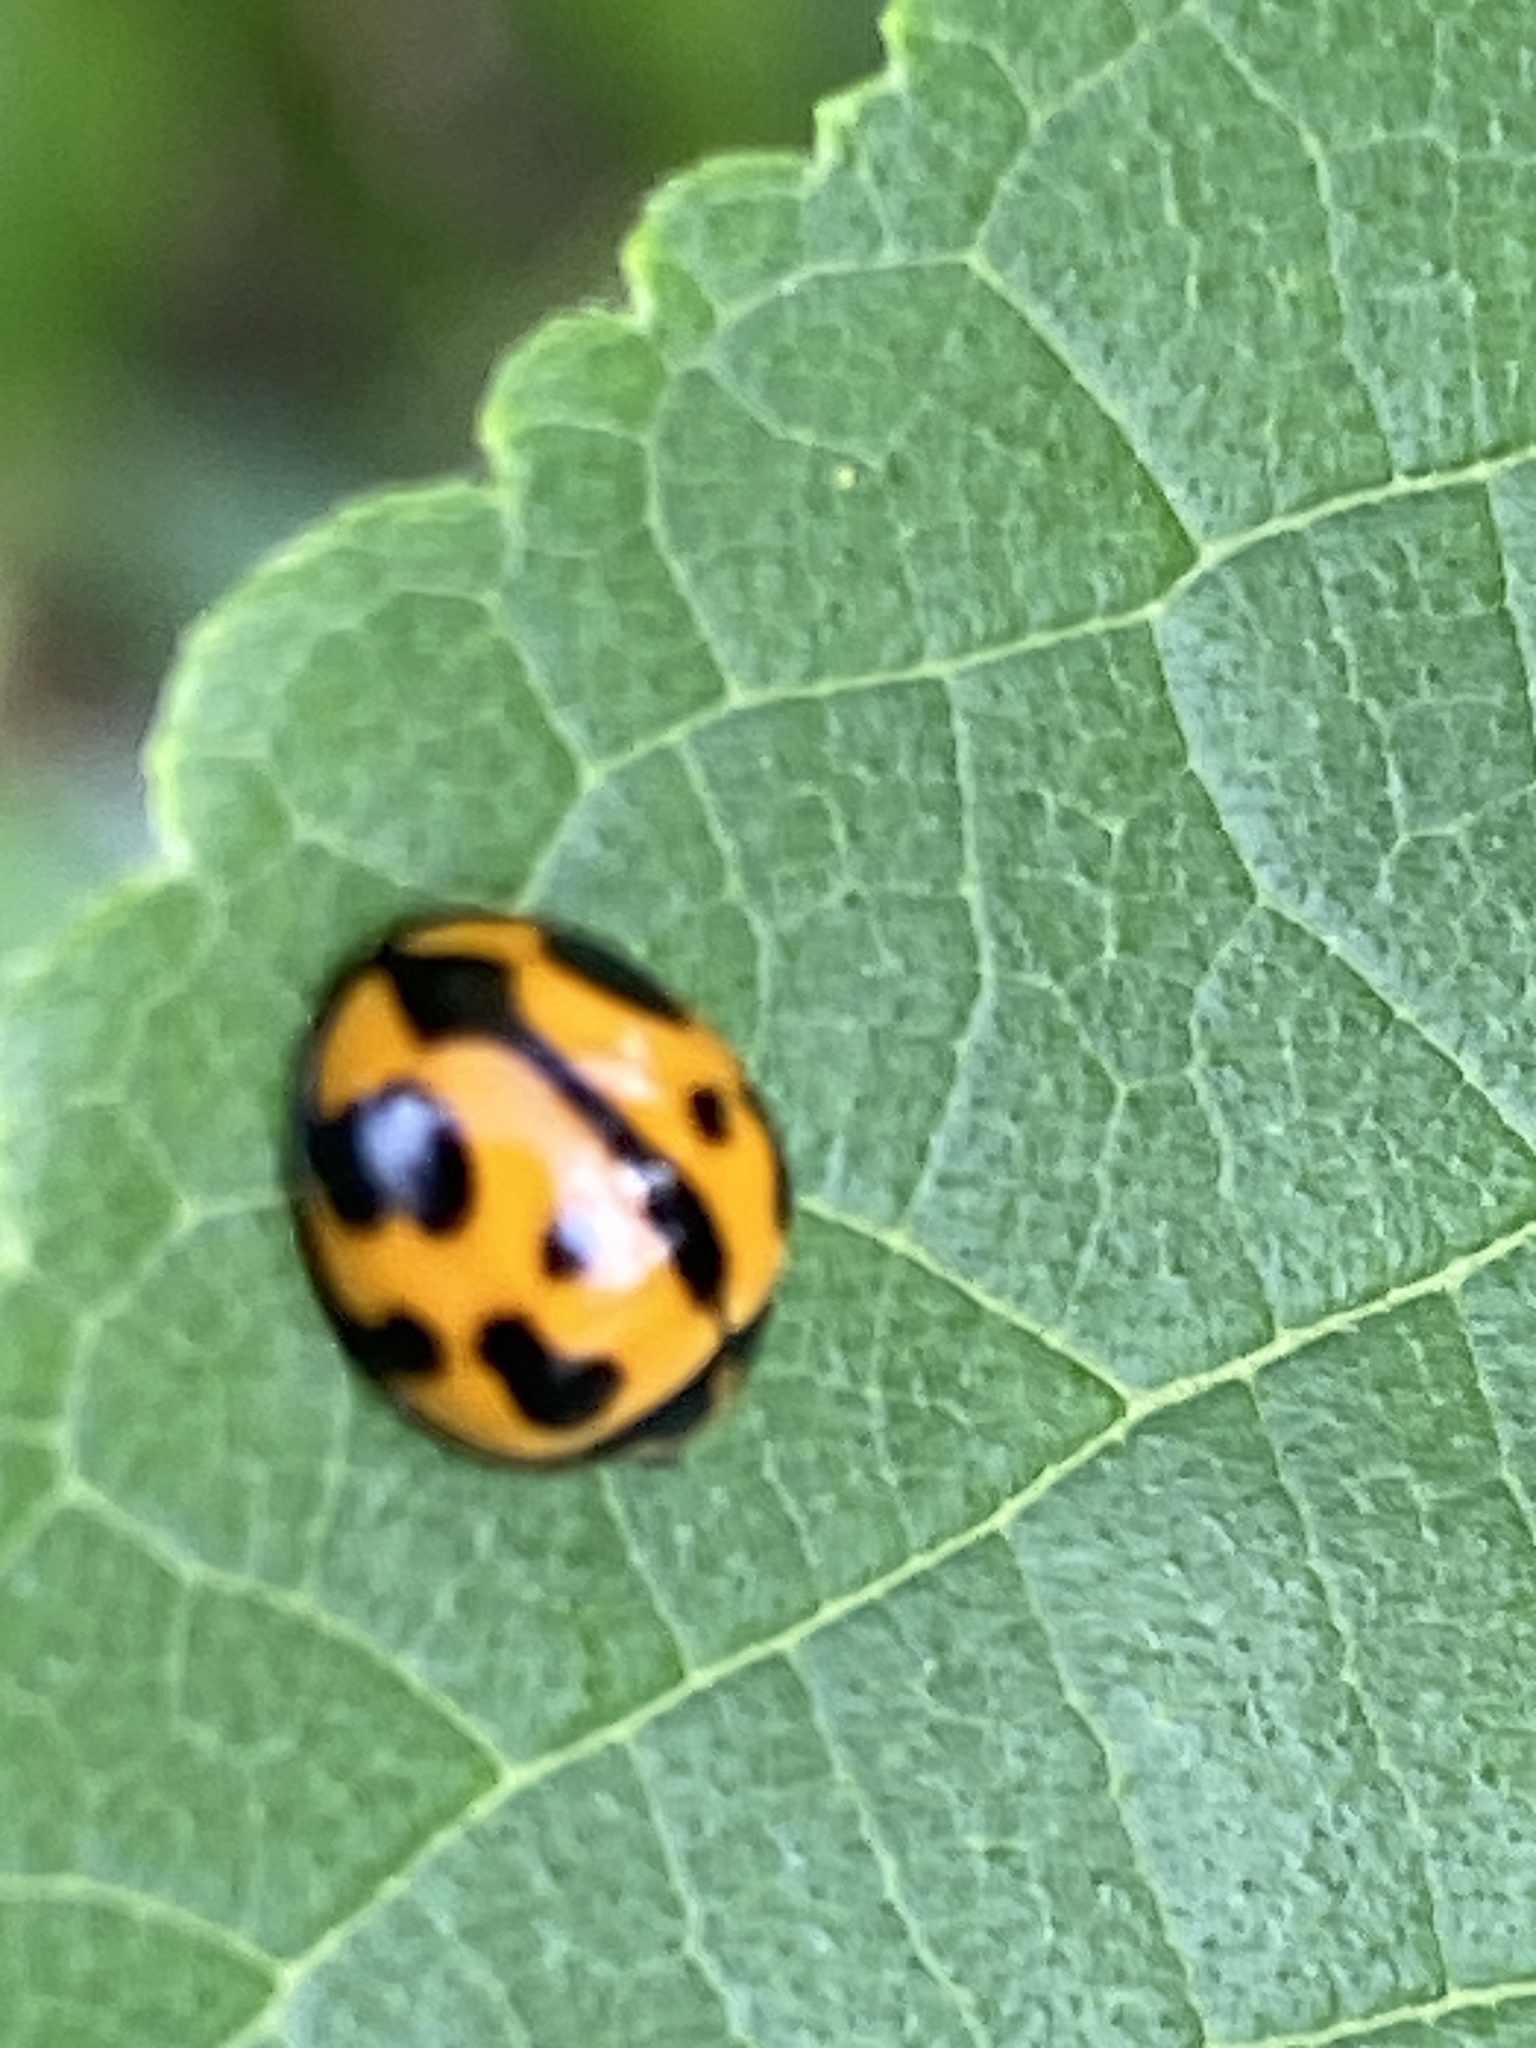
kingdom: Animalia
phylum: Arthropoda
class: Insecta
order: Coleoptera
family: Coccinellidae
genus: Coelophora
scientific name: Coelophora inaequalis
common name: Common australian lady beetle
